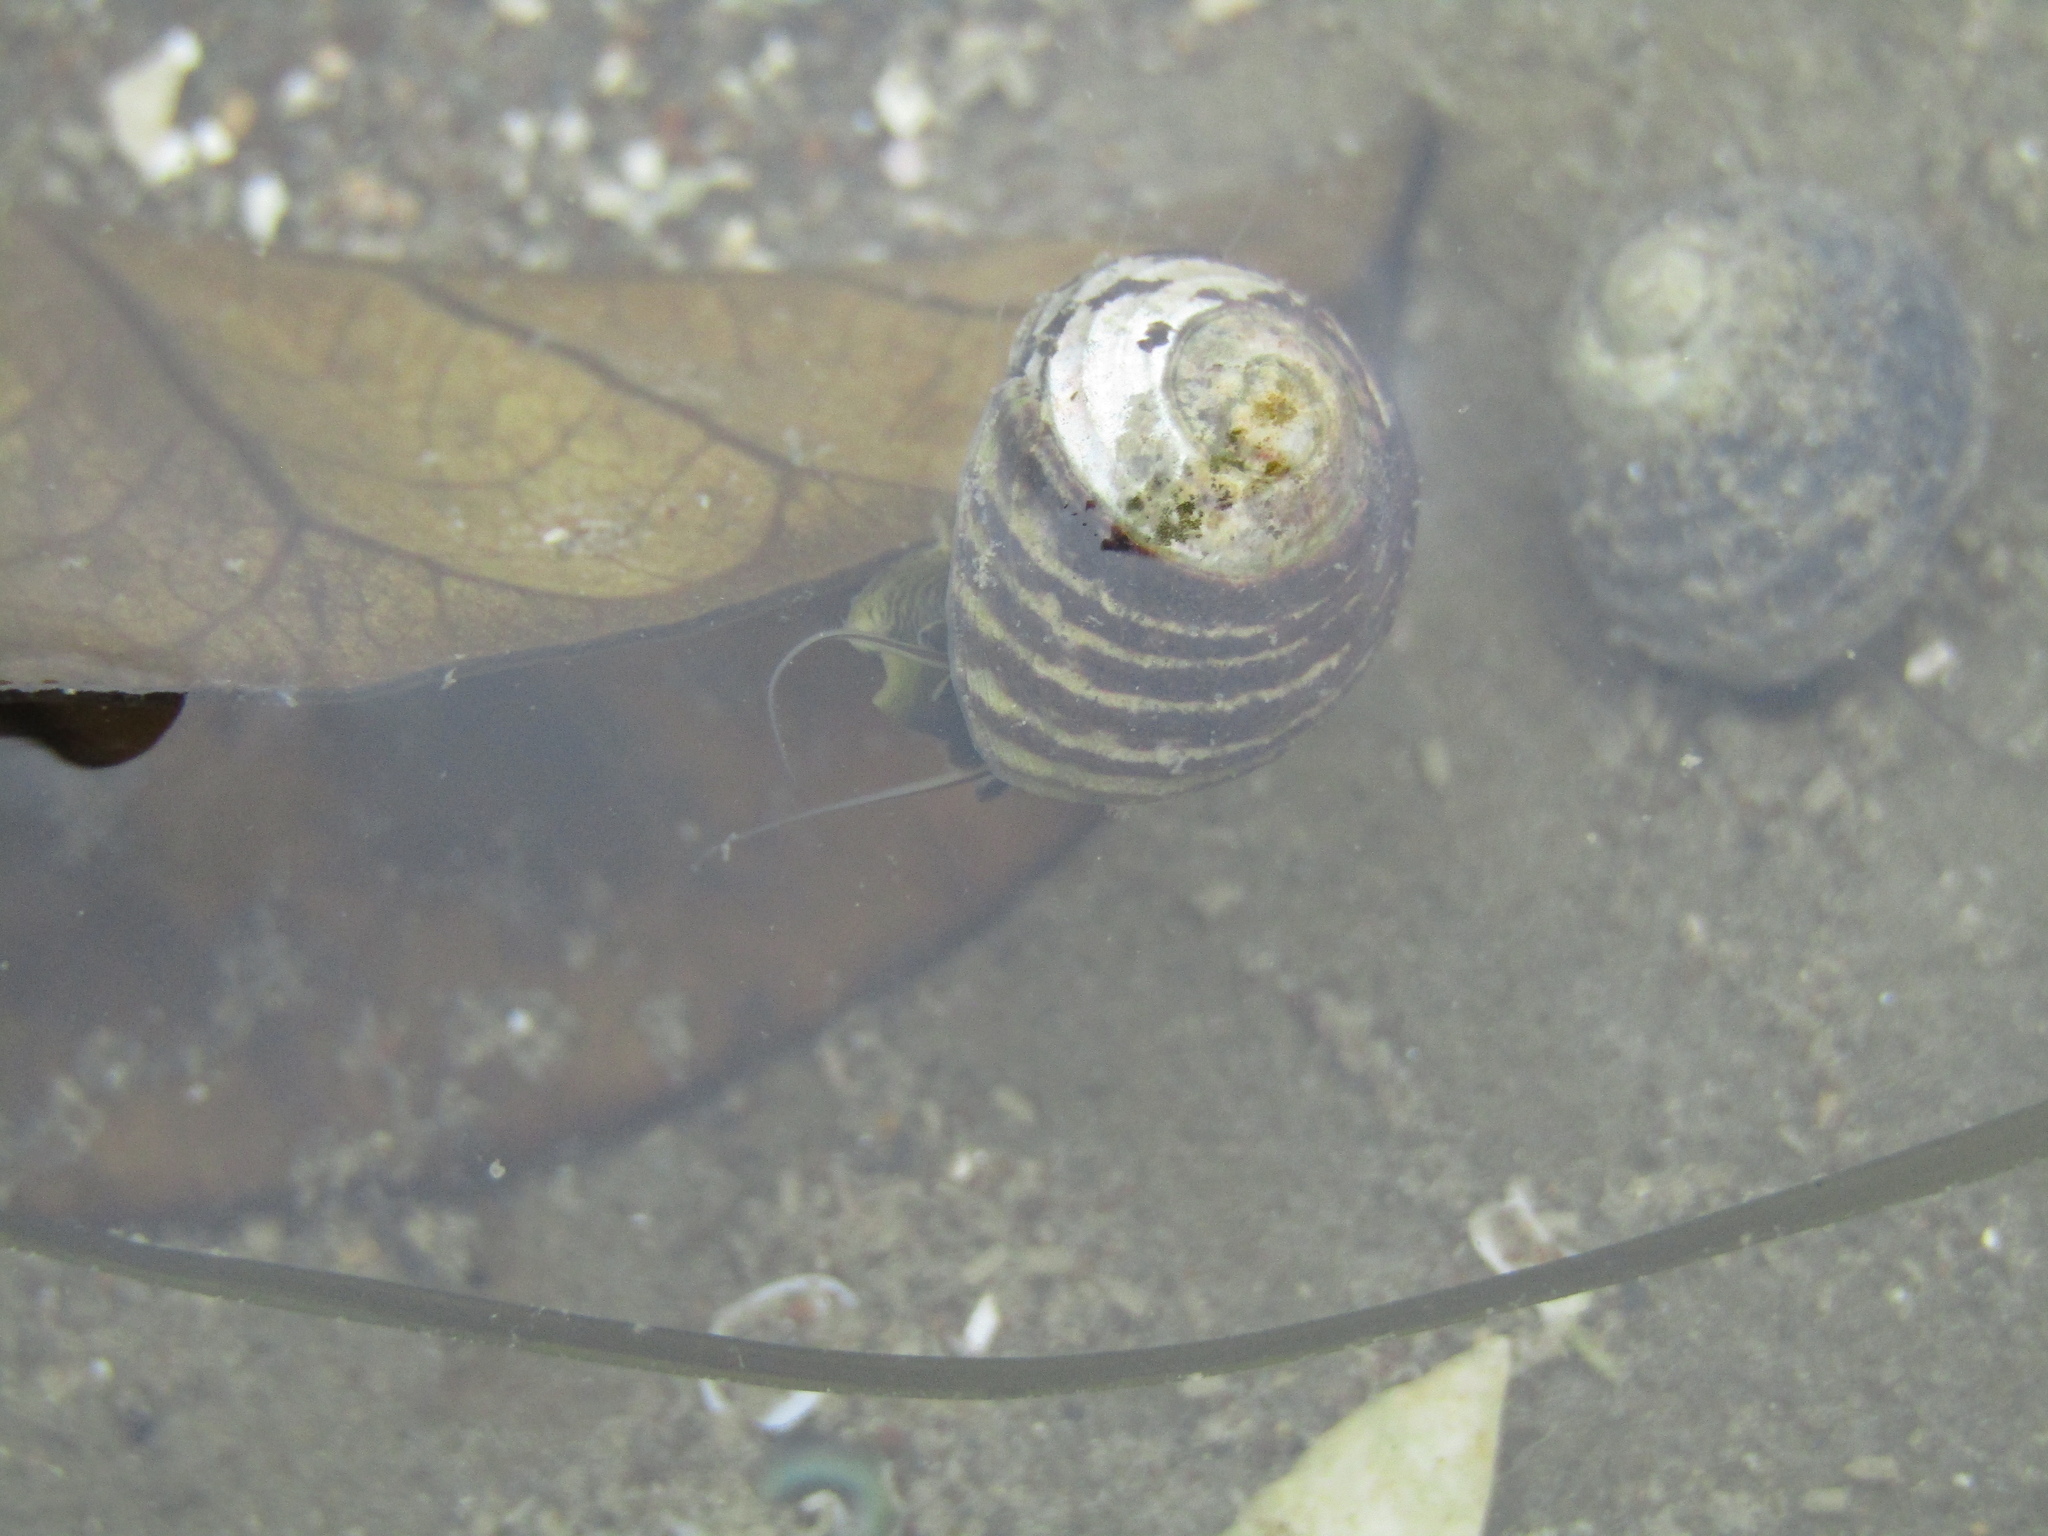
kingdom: Animalia
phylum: Mollusca
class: Gastropoda
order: Trochida
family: Trochidae
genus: Diloma
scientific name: Diloma subrostratum
